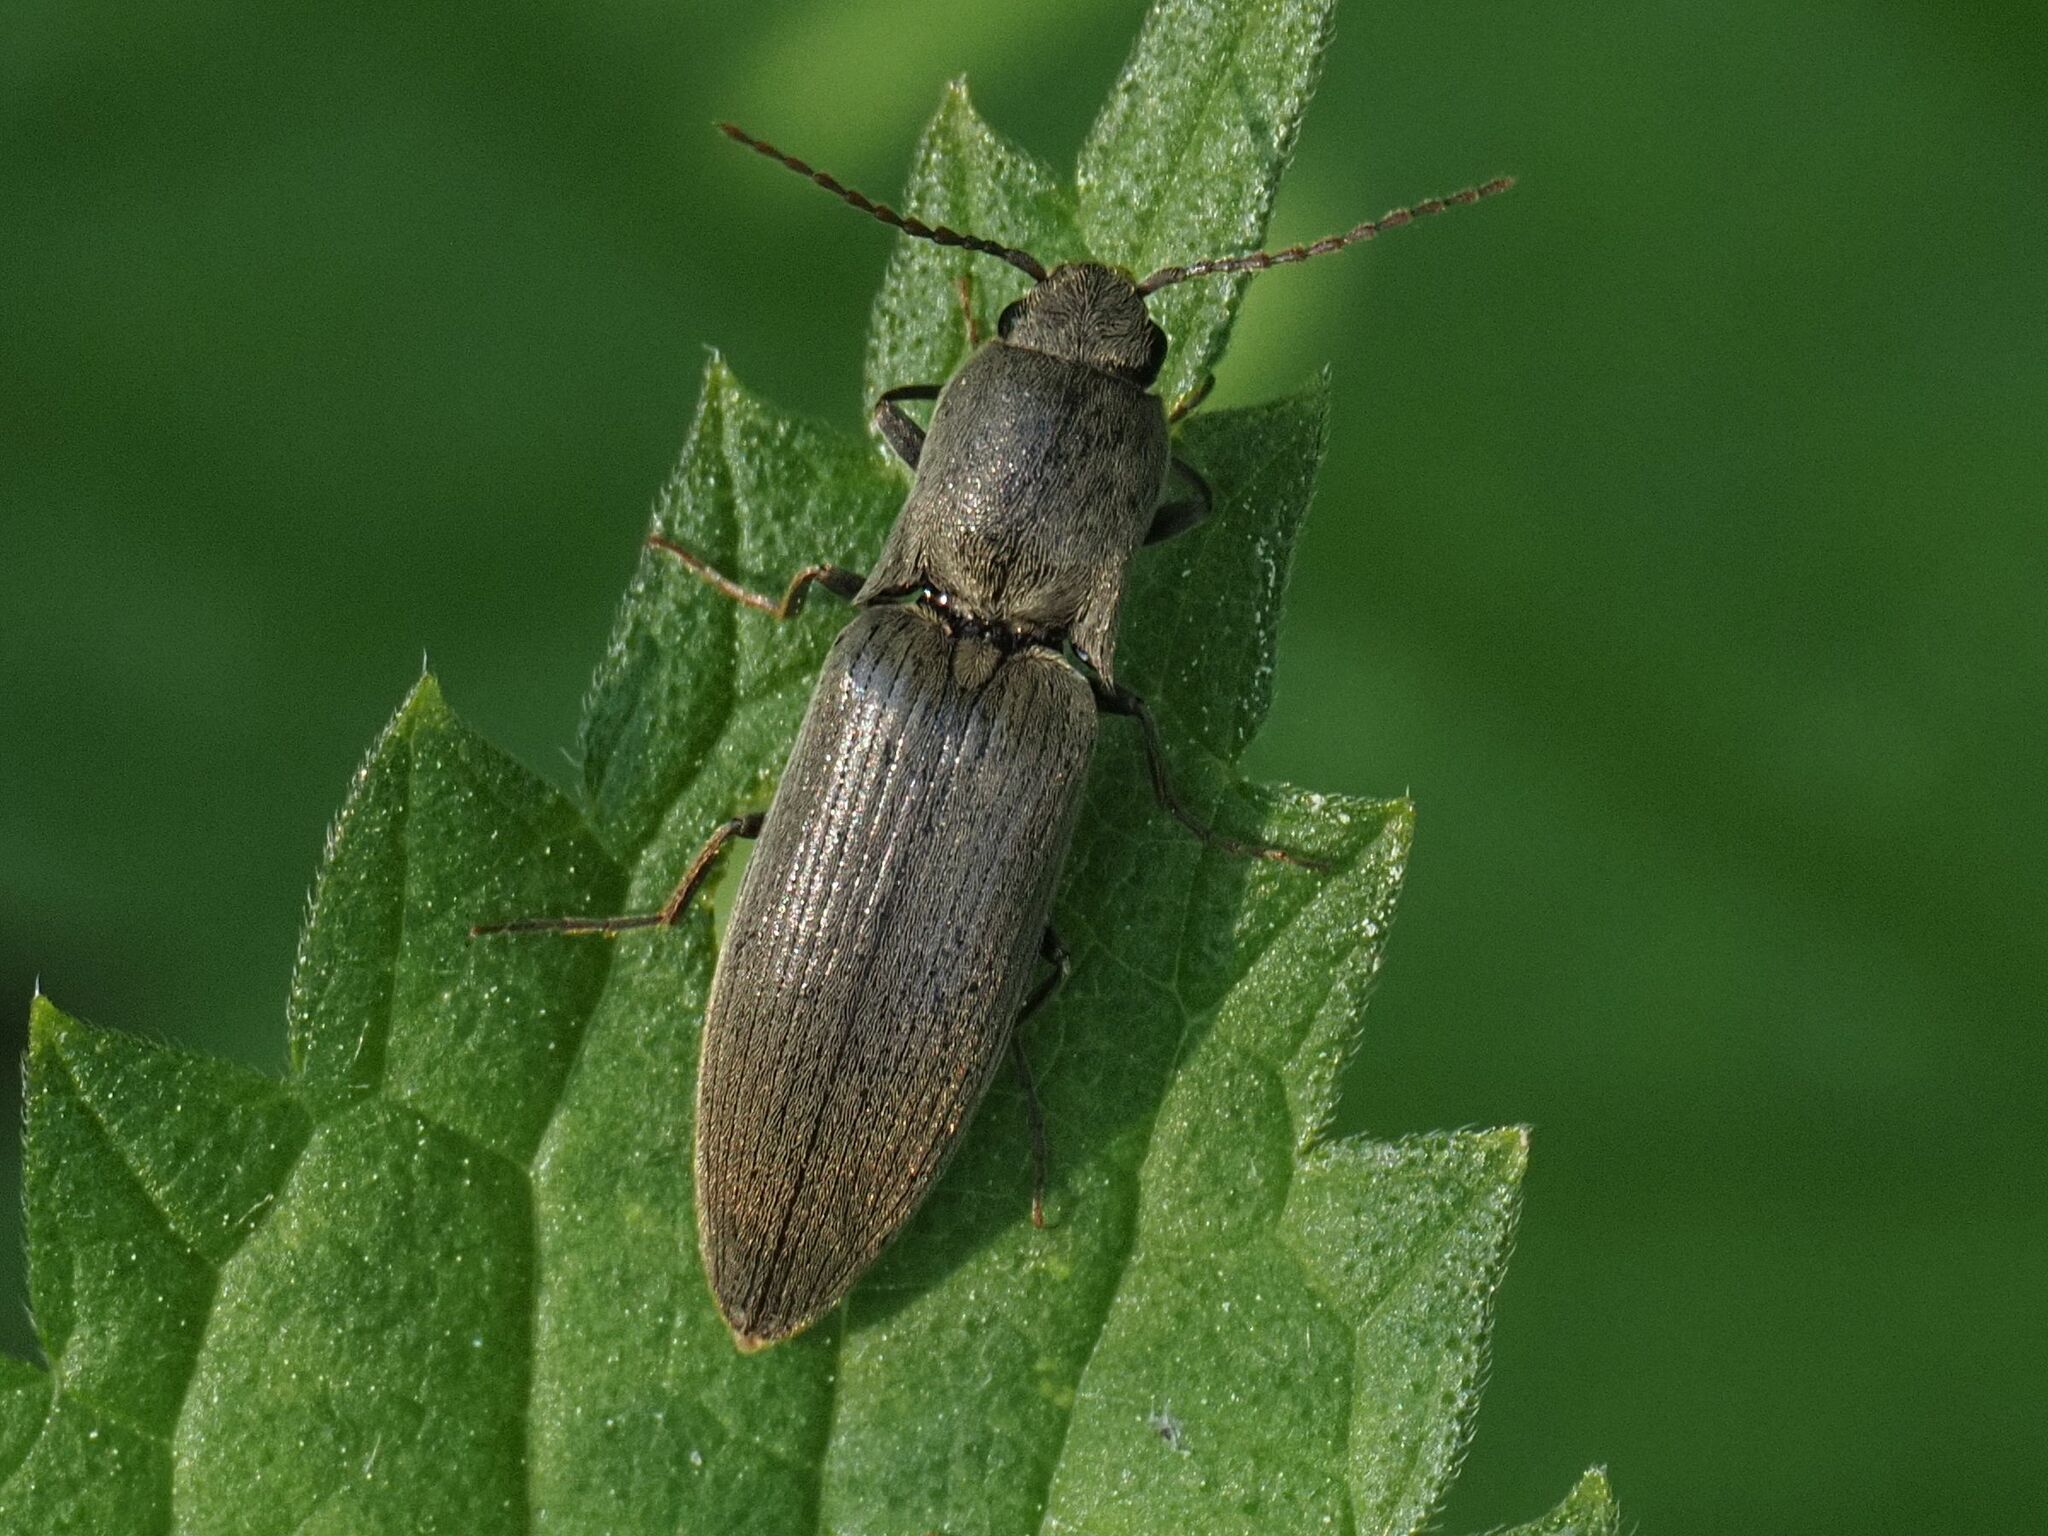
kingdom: Animalia
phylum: Arthropoda
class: Insecta
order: Coleoptera
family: Elateridae
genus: Agriotes
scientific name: Agriotes pilosellus
